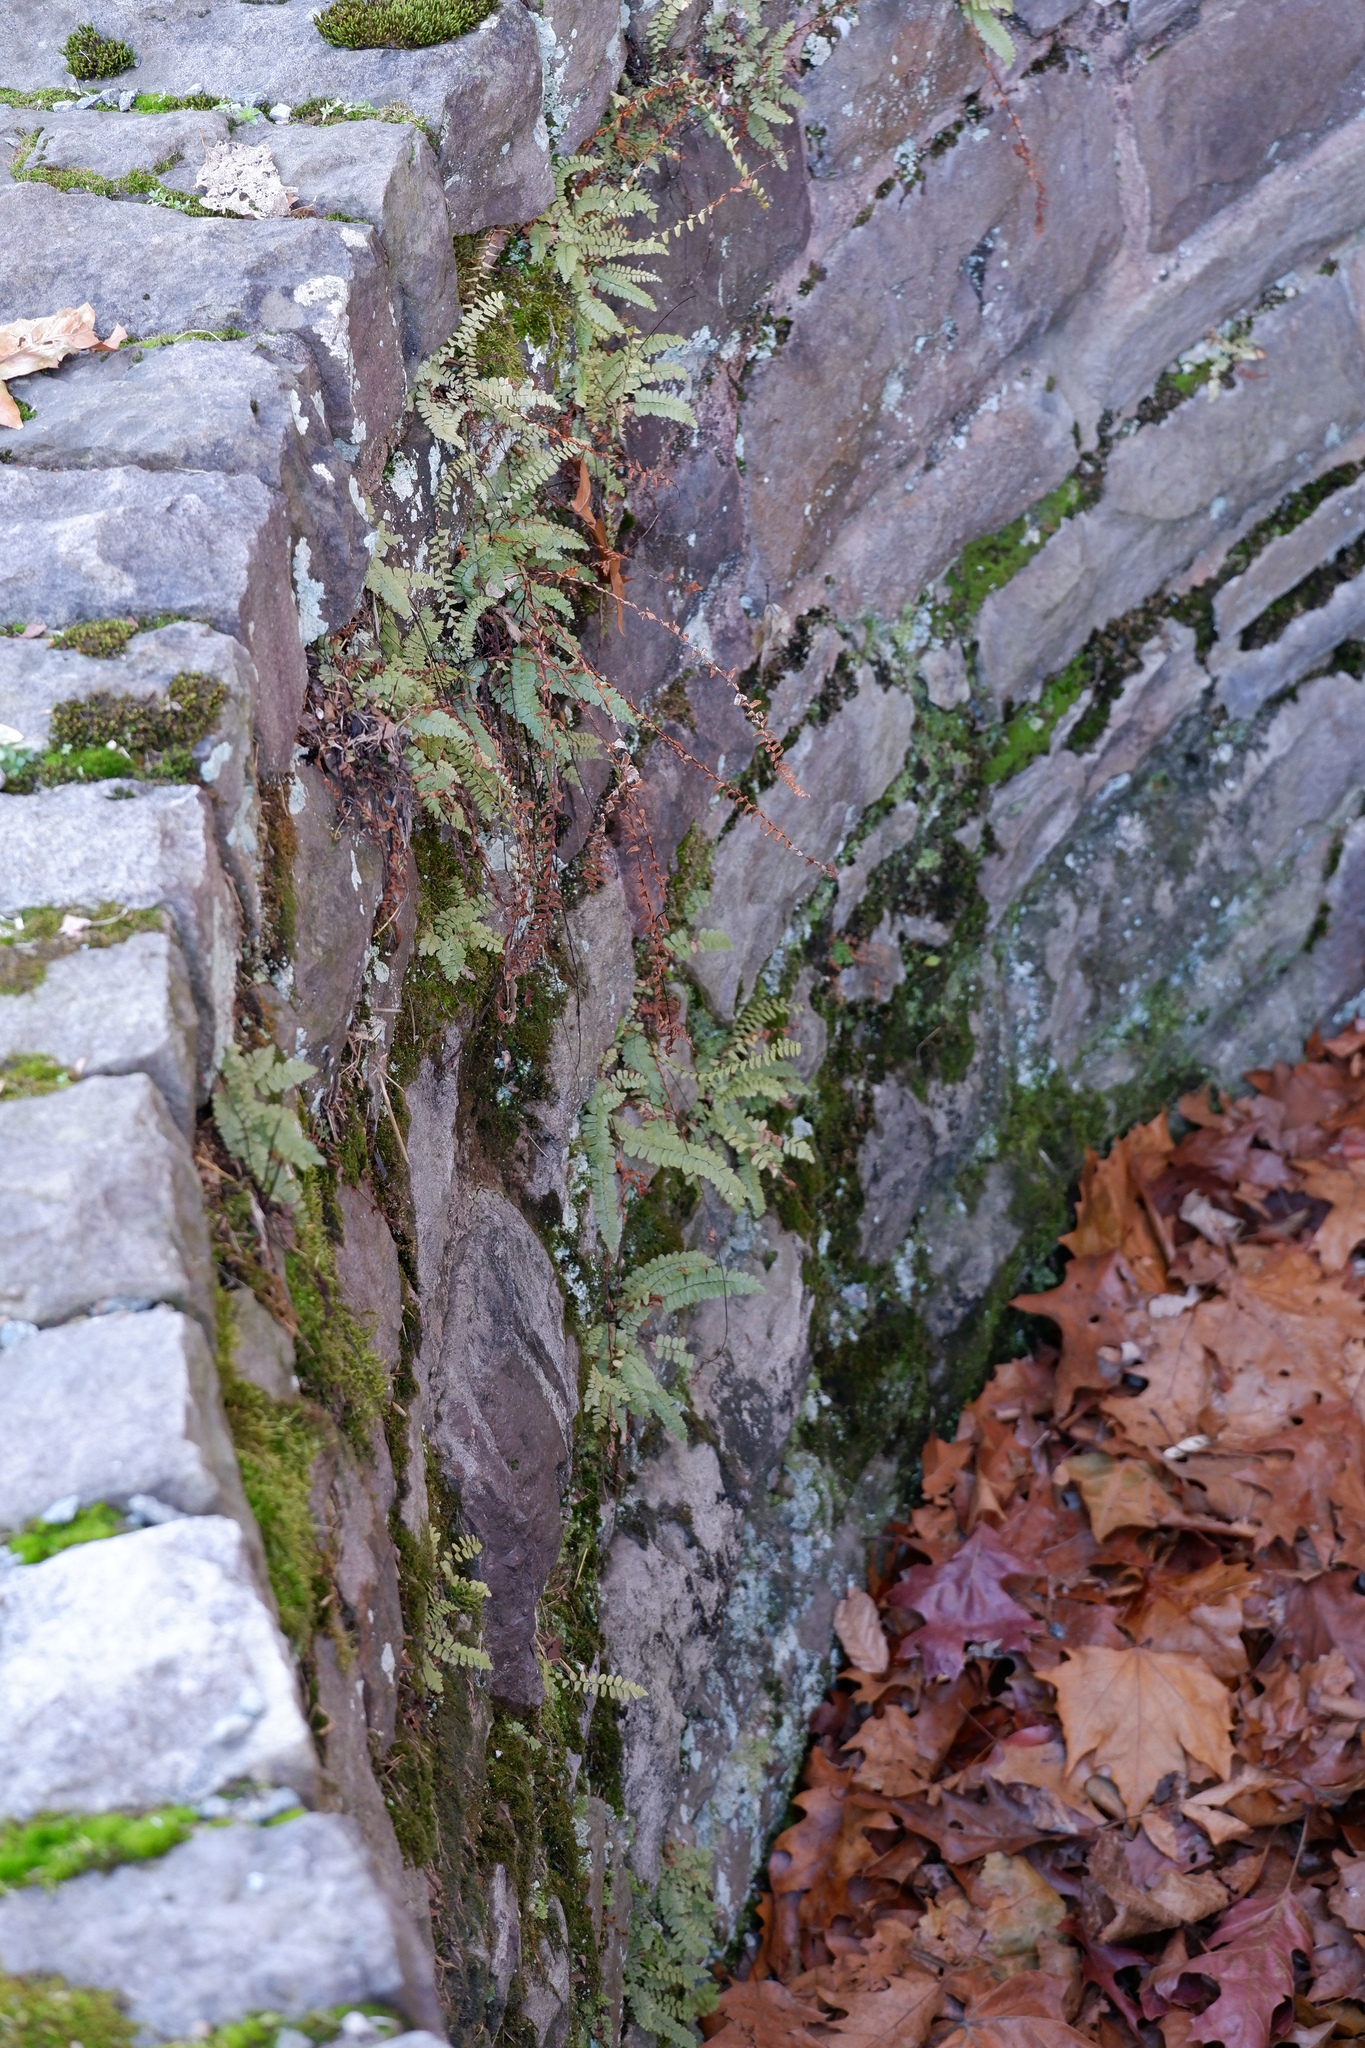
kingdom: Plantae
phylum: Tracheophyta
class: Polypodiopsida
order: Polypodiales
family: Aspleniaceae
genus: Asplenium
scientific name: Asplenium platyneuron
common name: Ebony spleenwort
